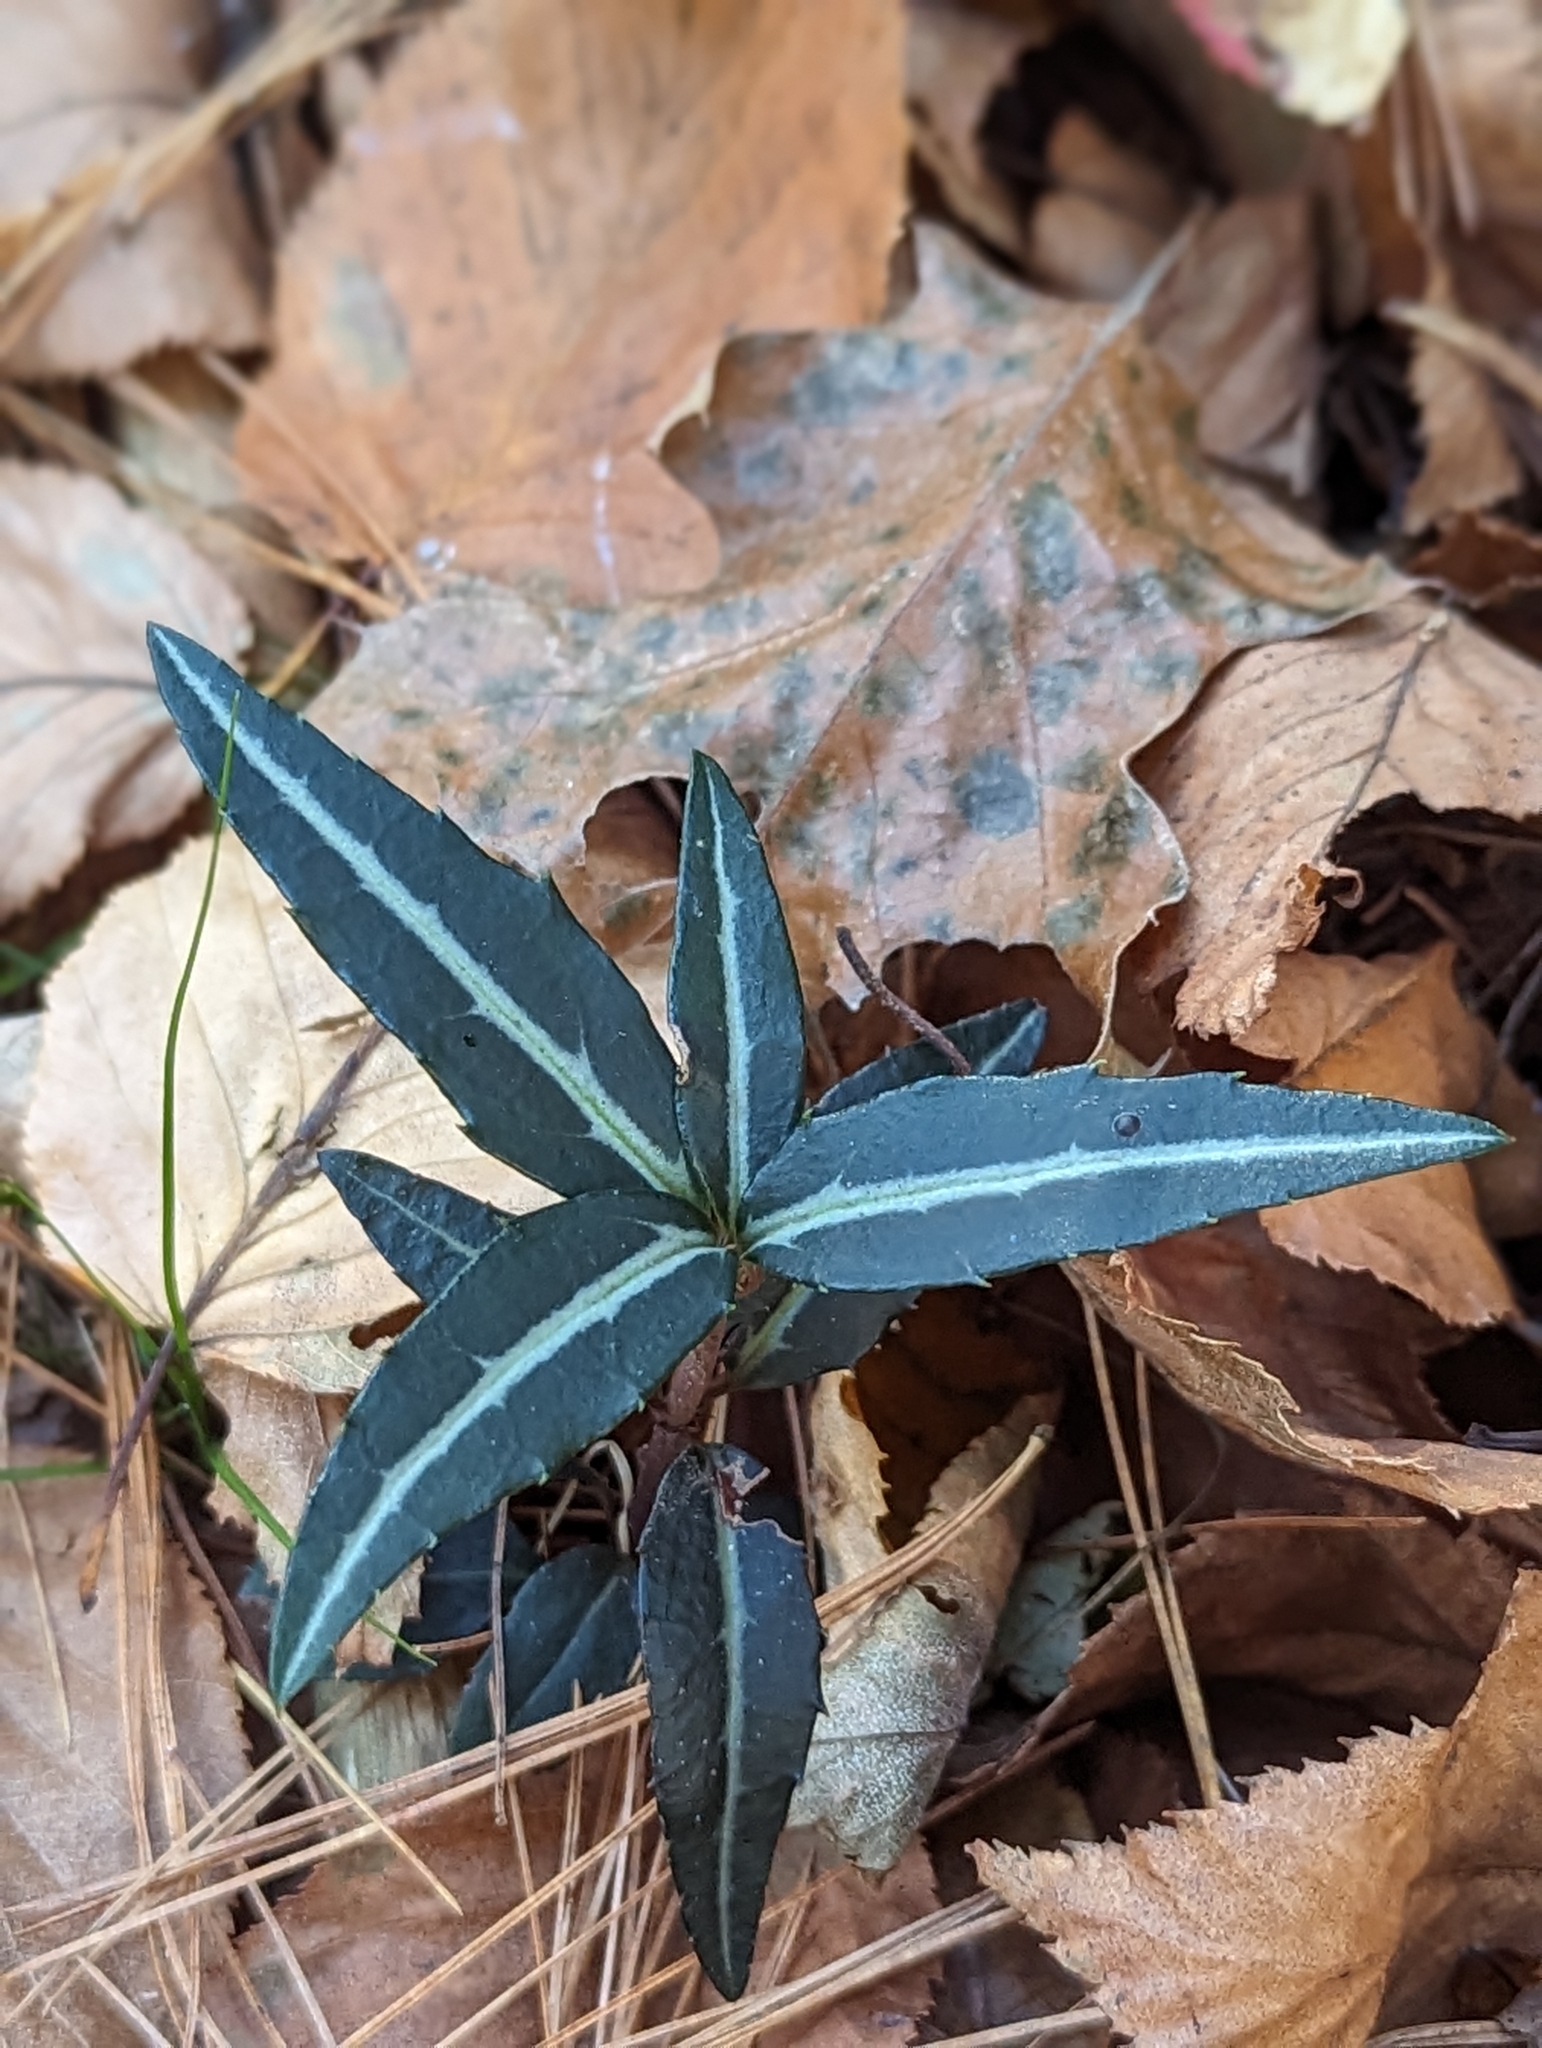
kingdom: Plantae
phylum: Tracheophyta
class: Magnoliopsida
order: Ericales
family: Ericaceae
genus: Chimaphila
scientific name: Chimaphila maculata
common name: Spotted pipsissewa
